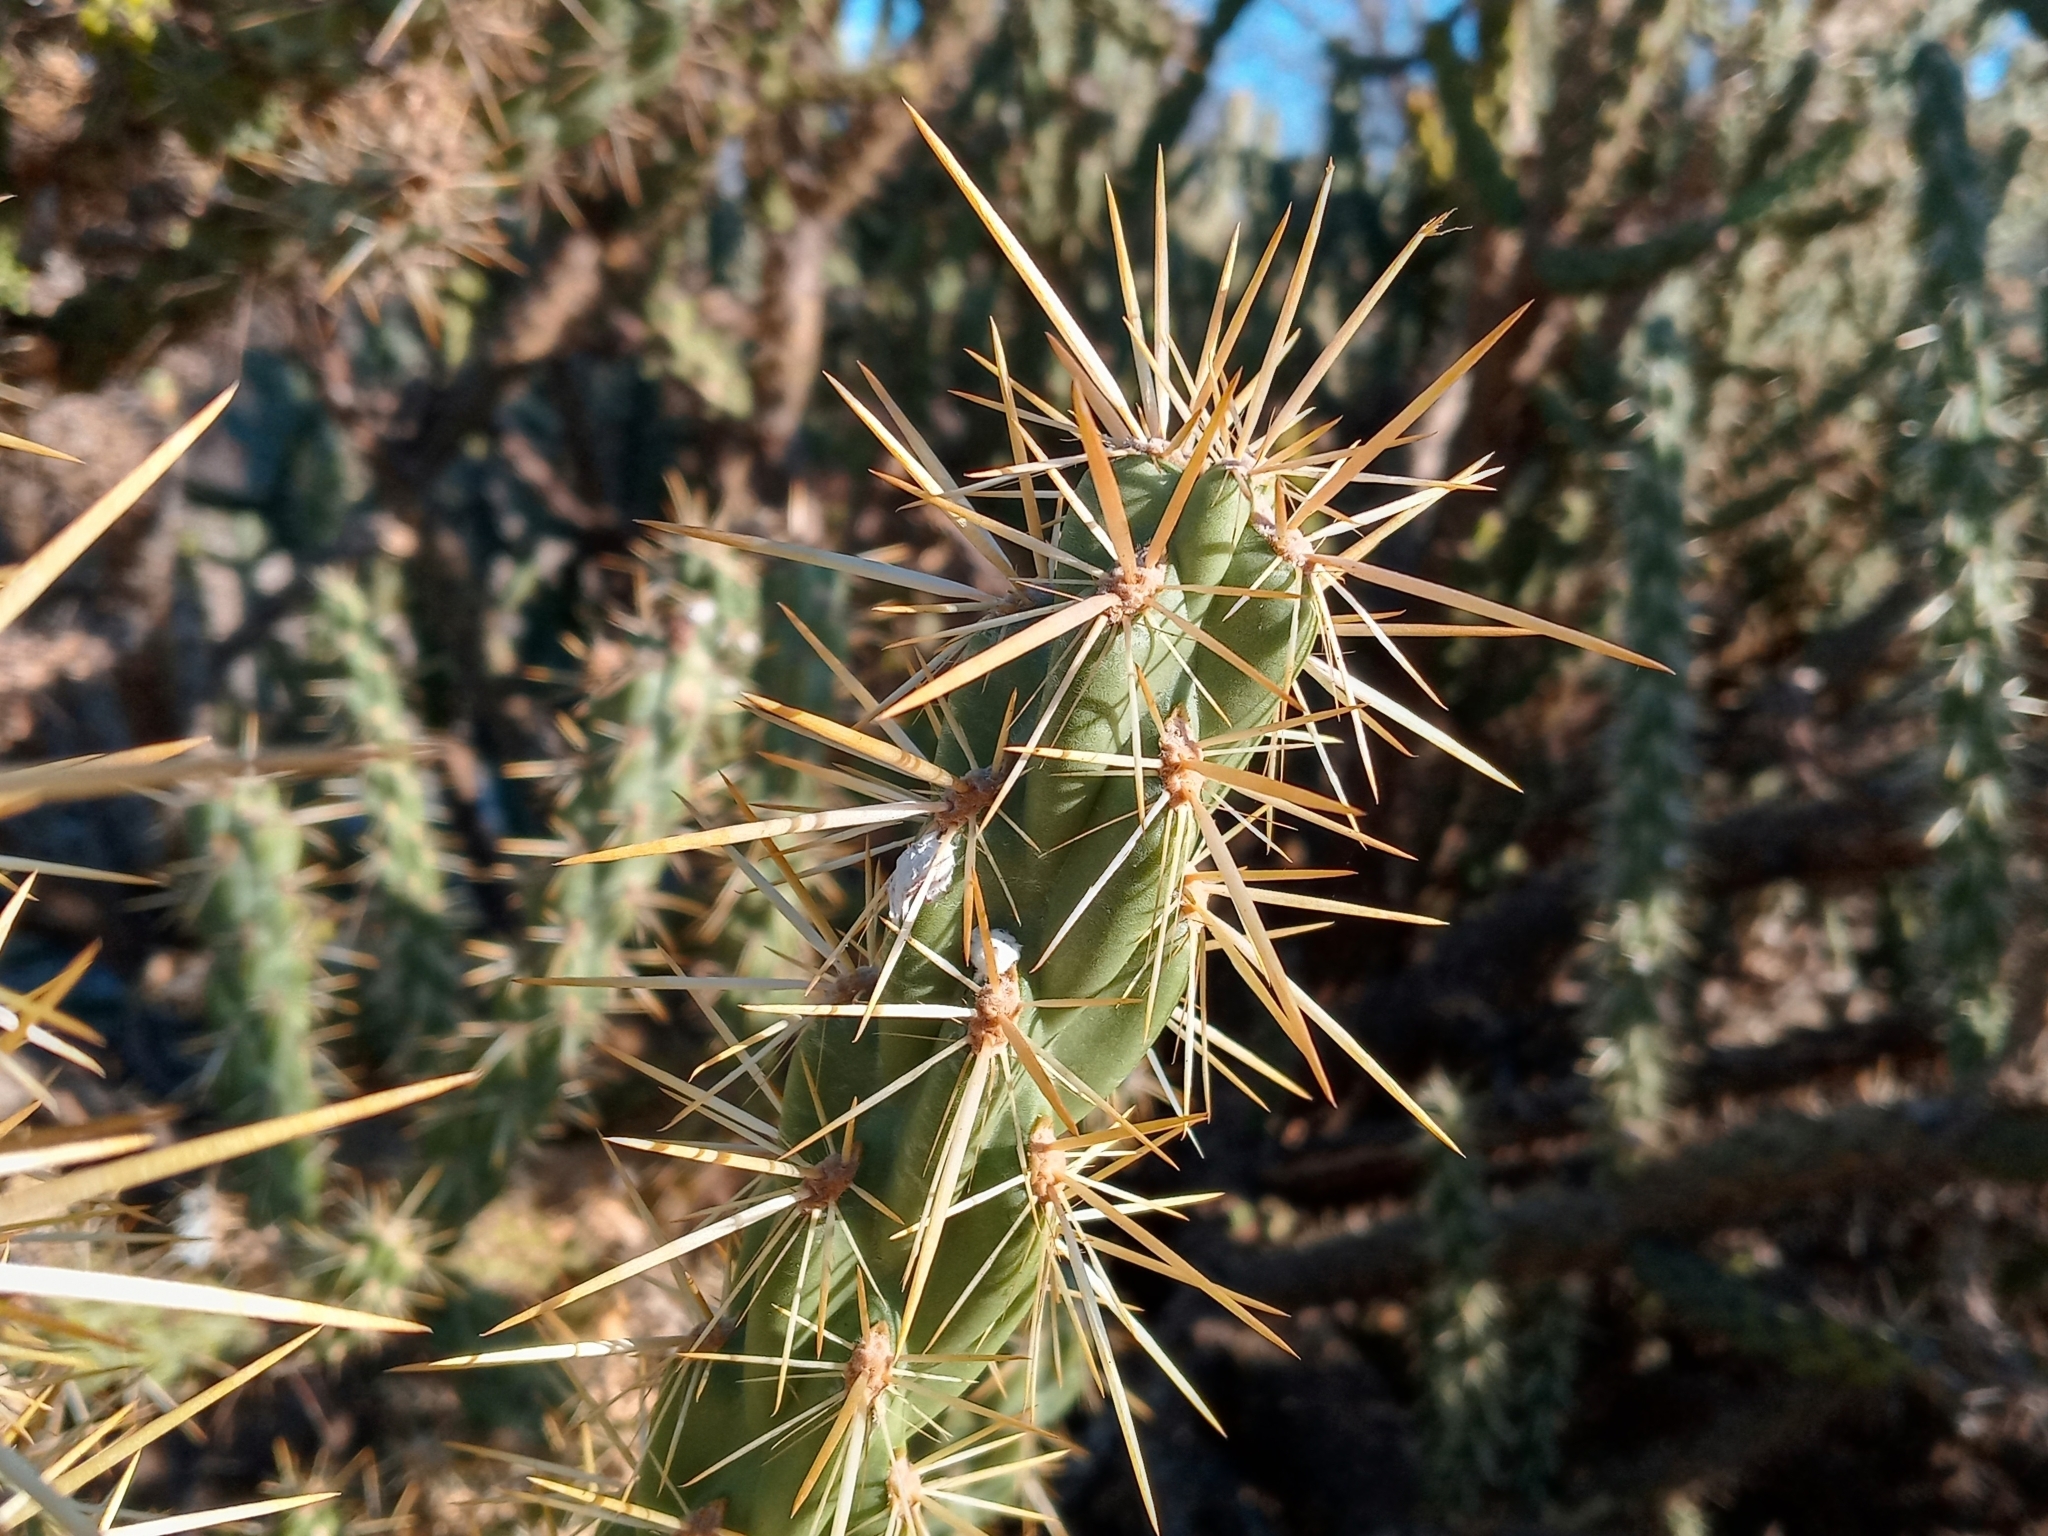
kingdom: Plantae
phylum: Tracheophyta
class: Magnoliopsida
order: Caryophyllales
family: Cactaceae
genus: Cylindropuntia
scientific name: Cylindropuntia bernardina
